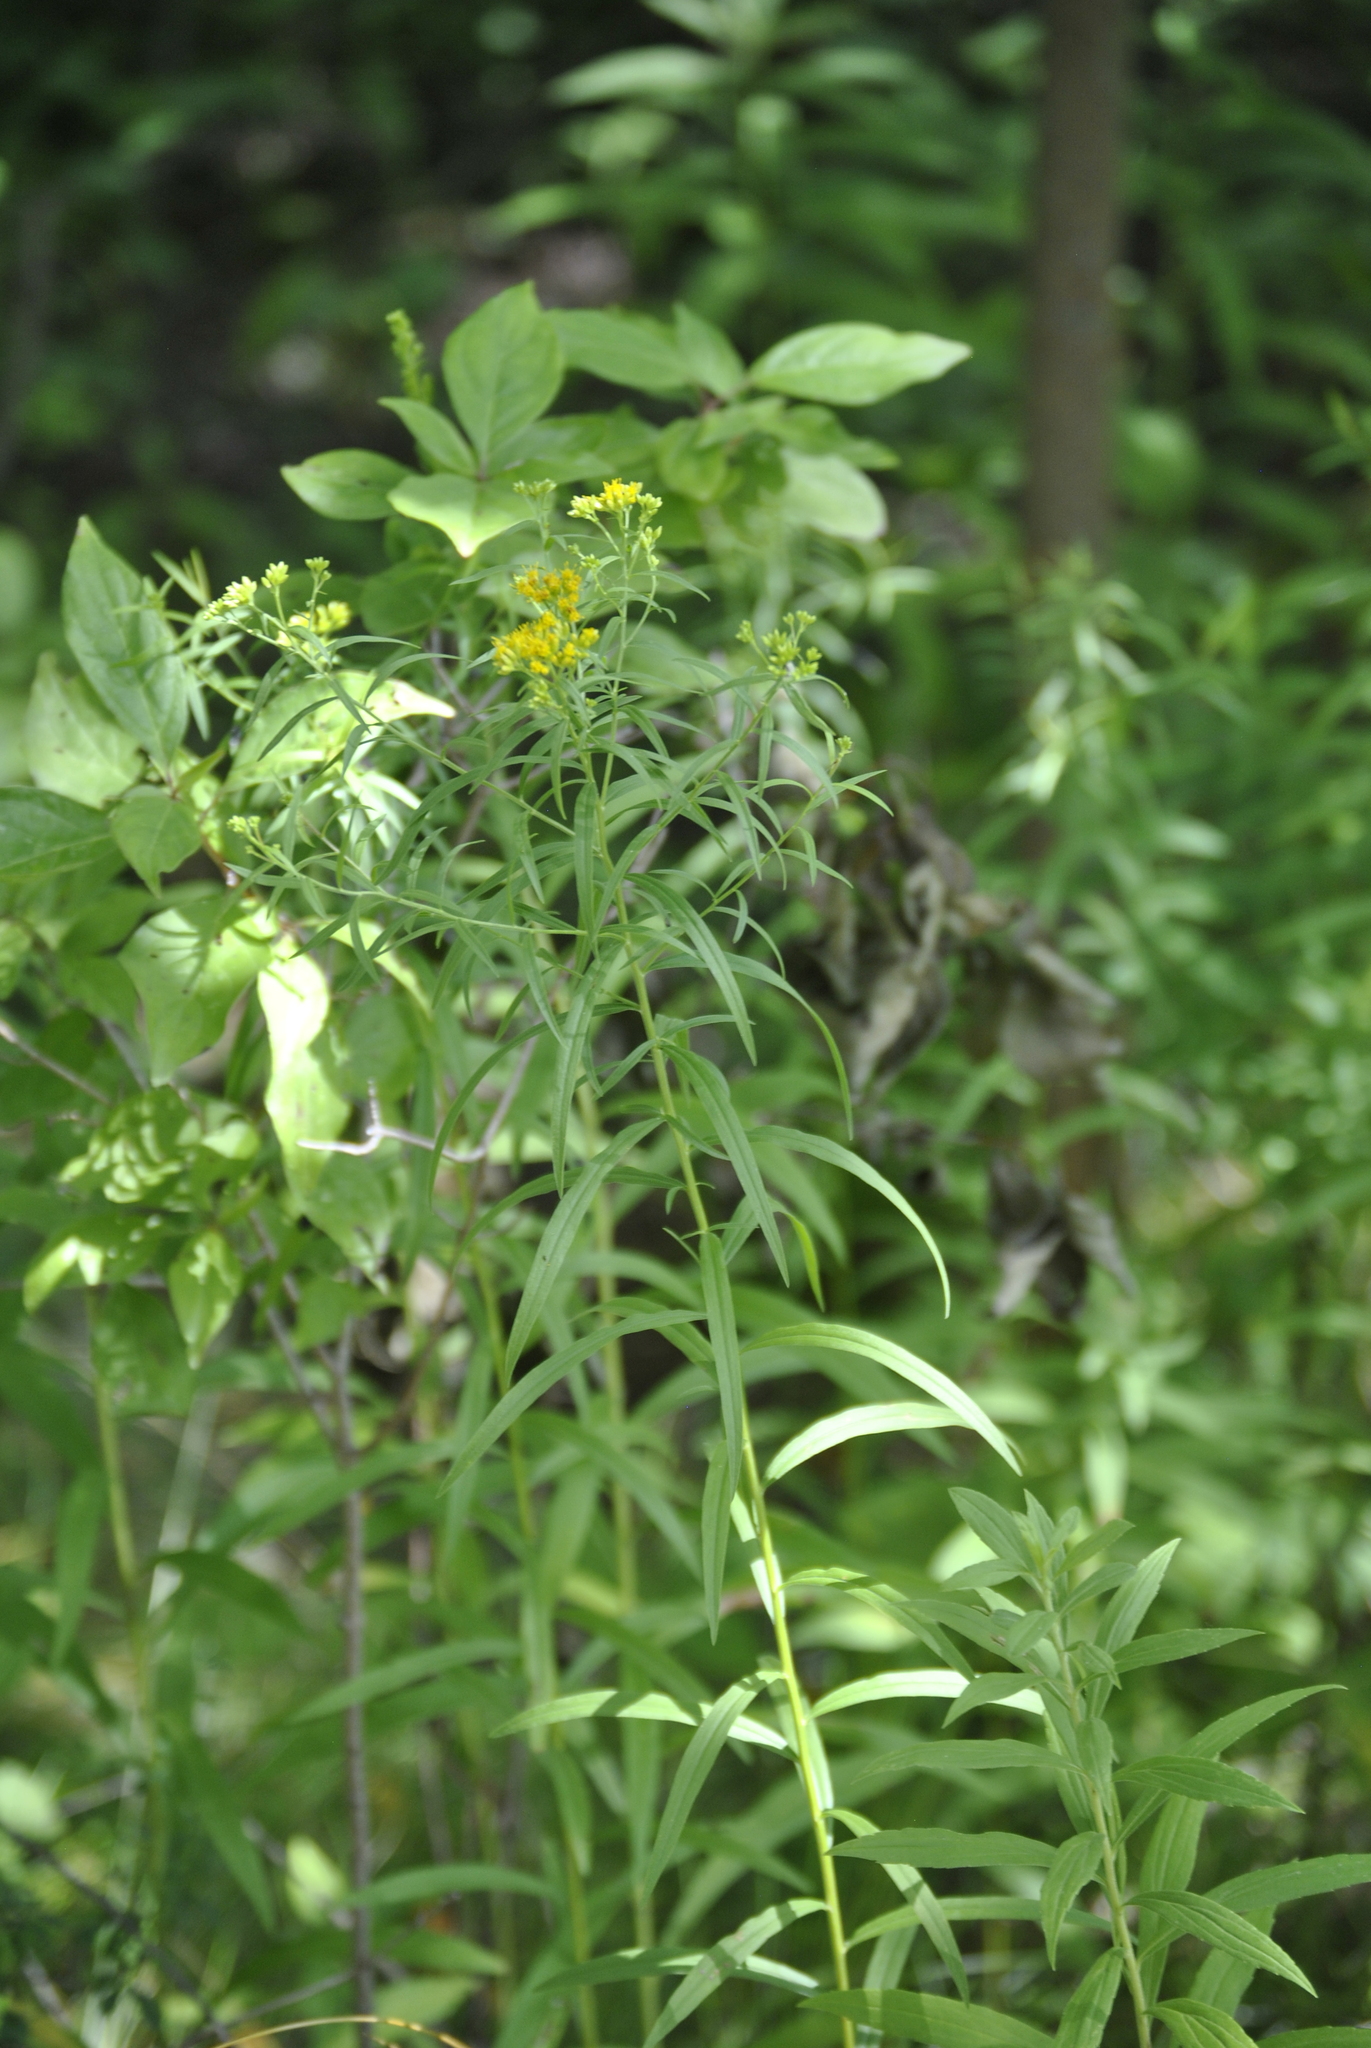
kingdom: Plantae
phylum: Tracheophyta
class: Magnoliopsida
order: Asterales
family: Asteraceae
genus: Euthamia
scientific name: Euthamia graminifolia
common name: Common goldentop
